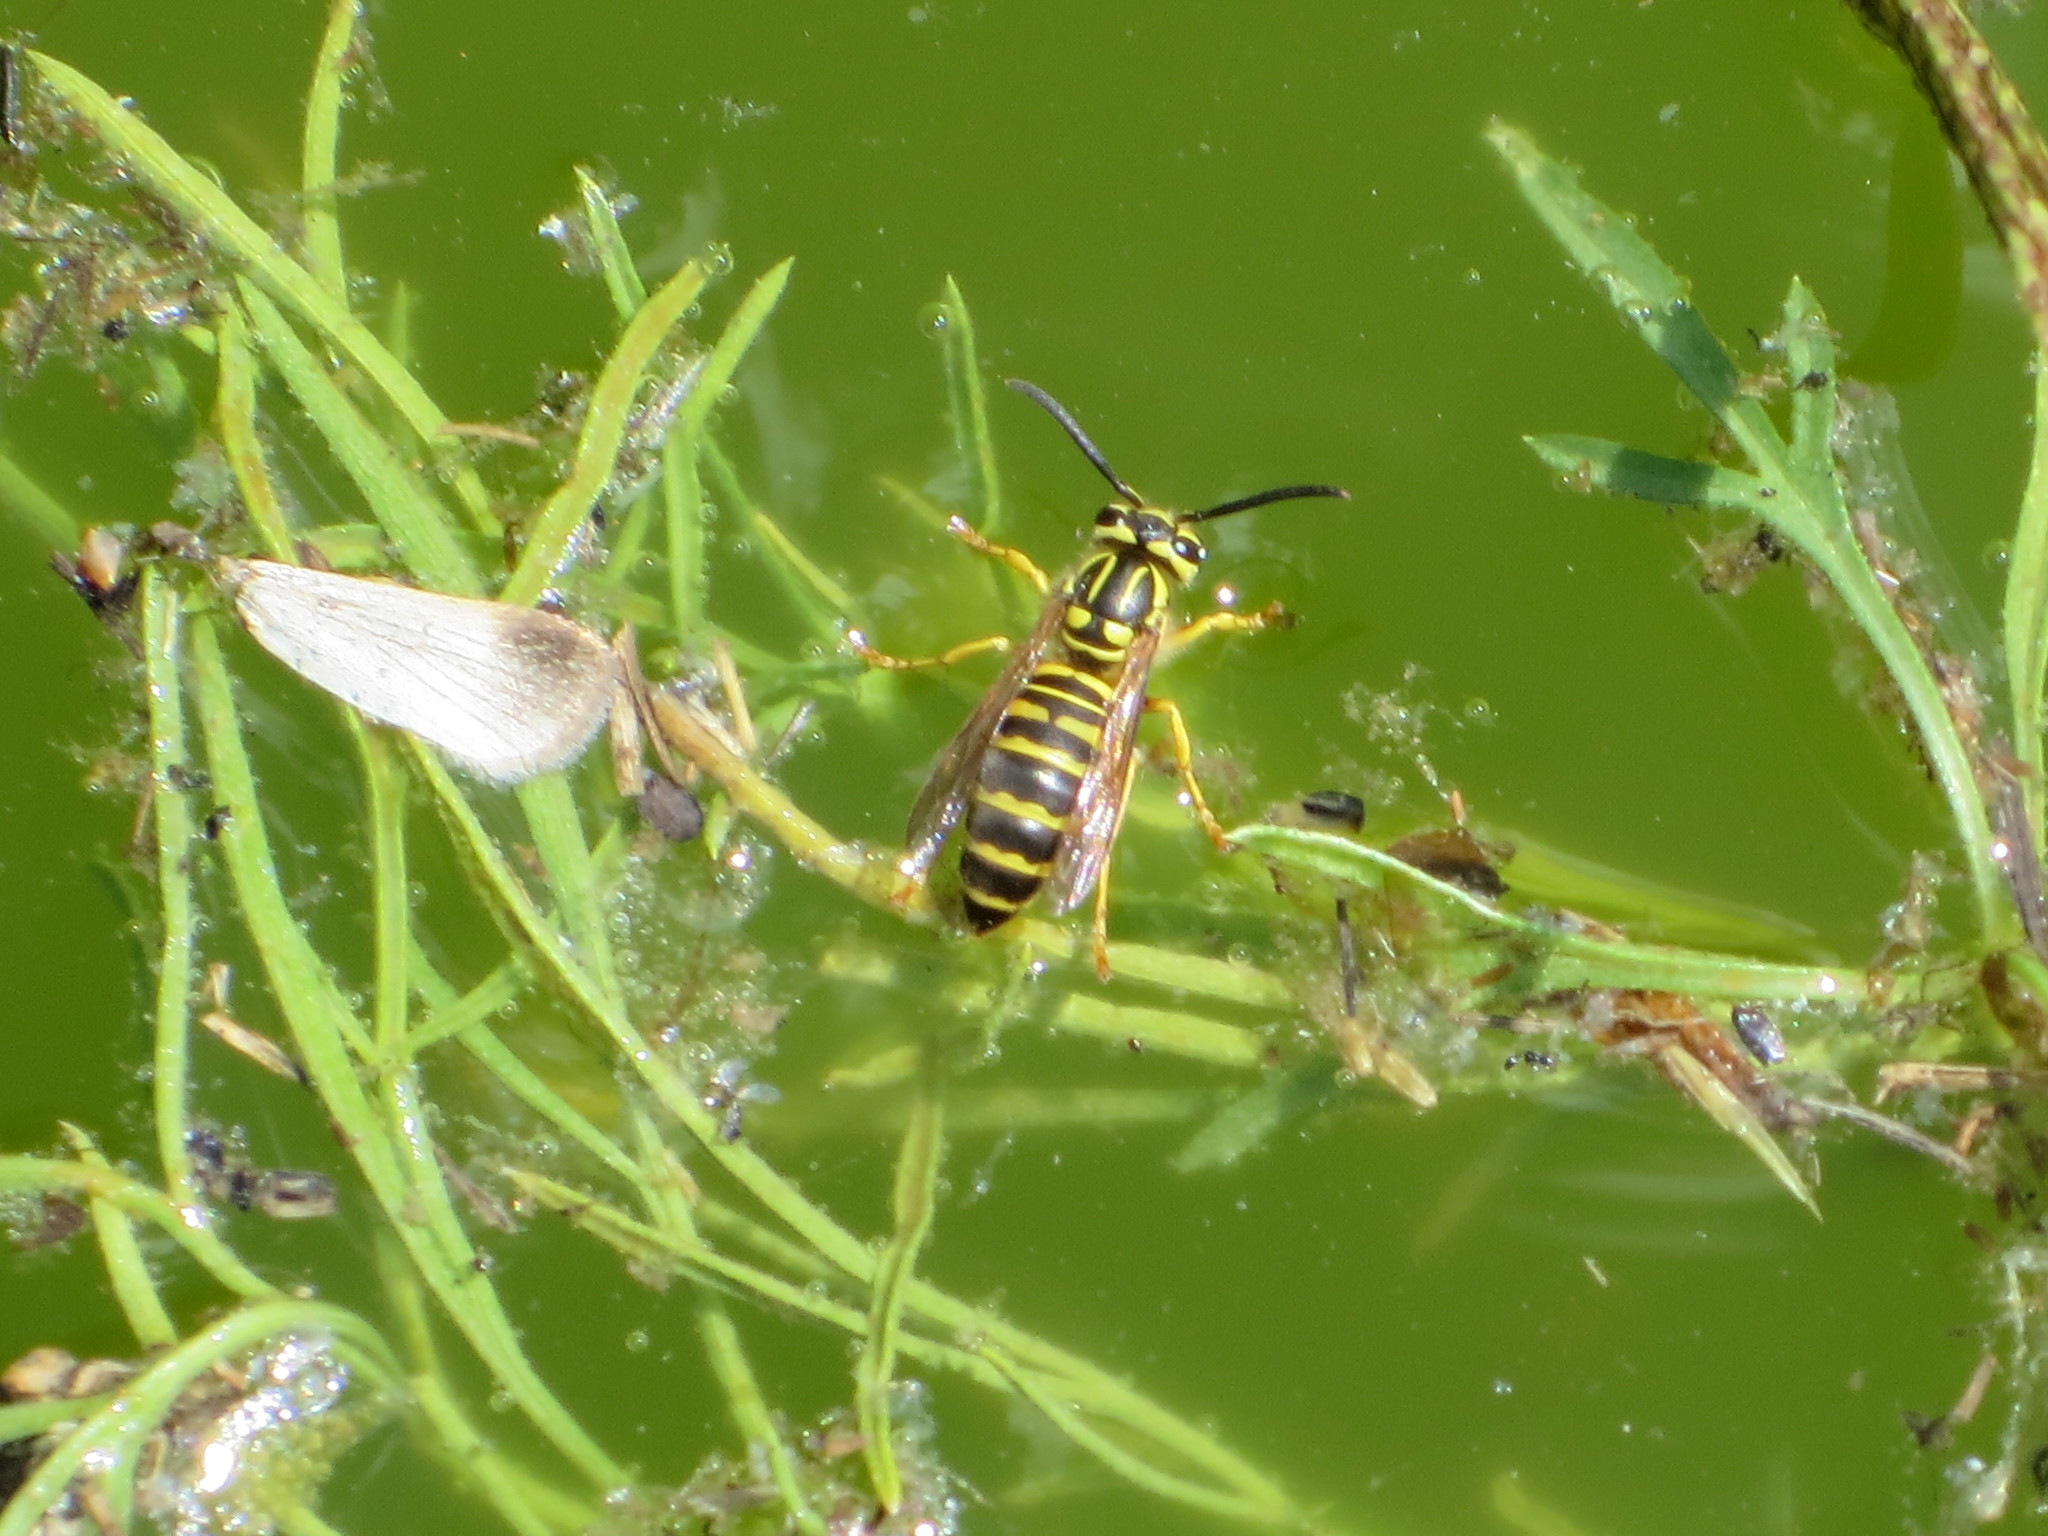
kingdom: Animalia
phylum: Arthropoda
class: Insecta
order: Hymenoptera
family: Vespidae
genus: Vespula
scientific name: Vespula squamosa
